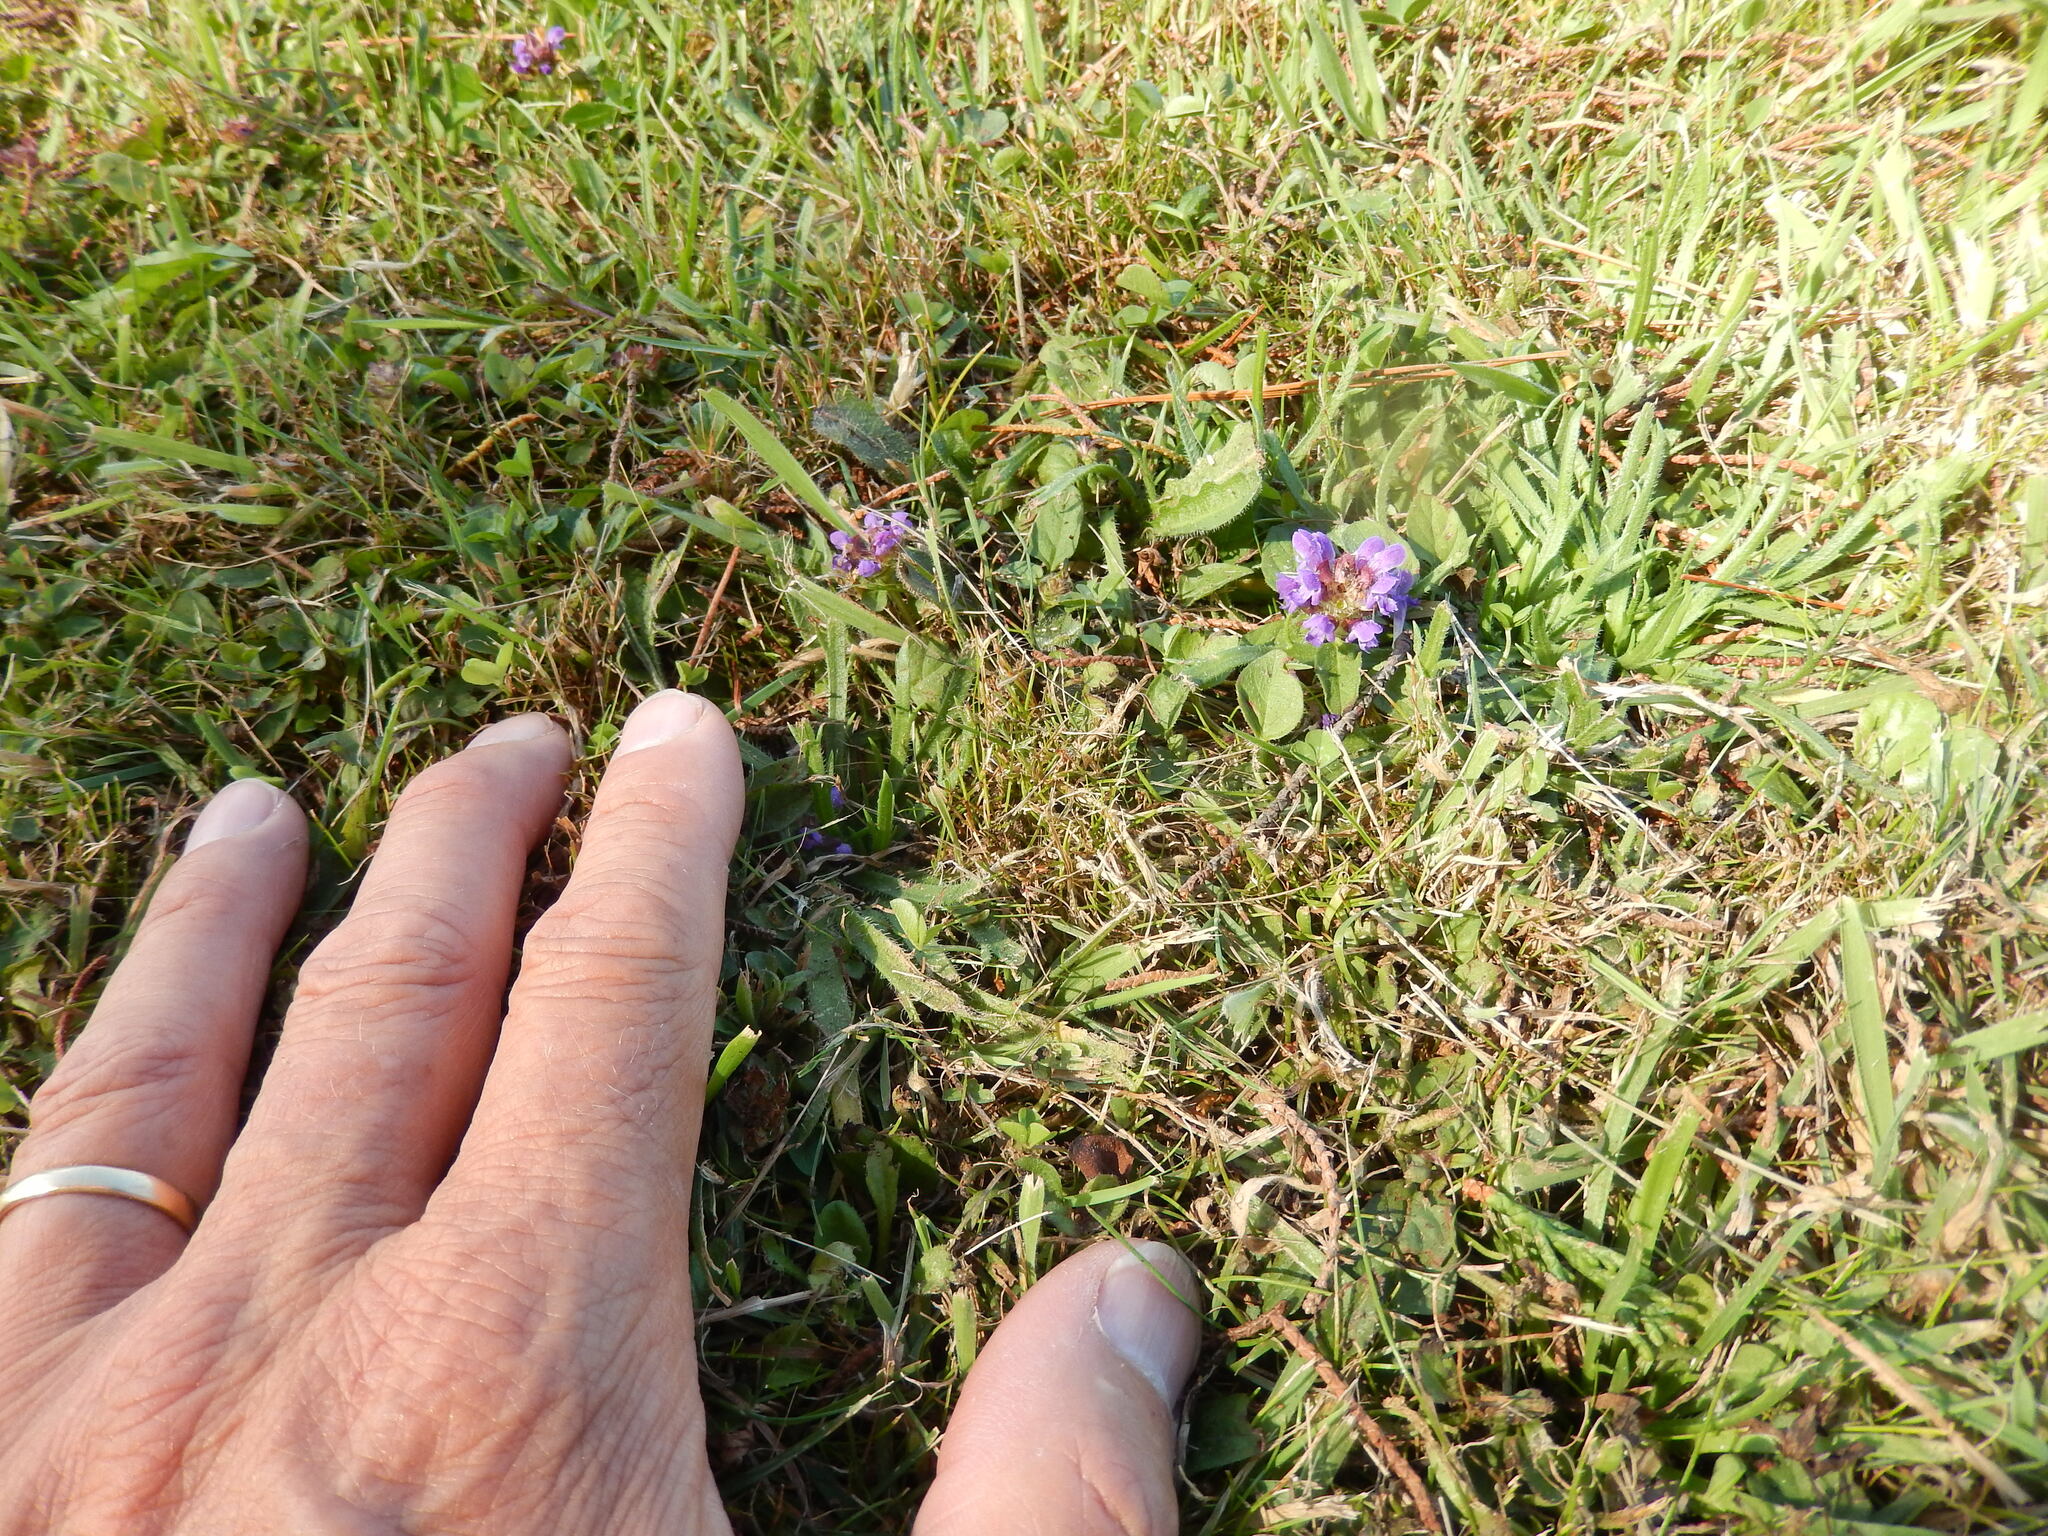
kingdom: Plantae
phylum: Tracheophyta
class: Magnoliopsida
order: Lamiales
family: Lamiaceae
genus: Prunella
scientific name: Prunella vulgaris
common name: Heal-all
